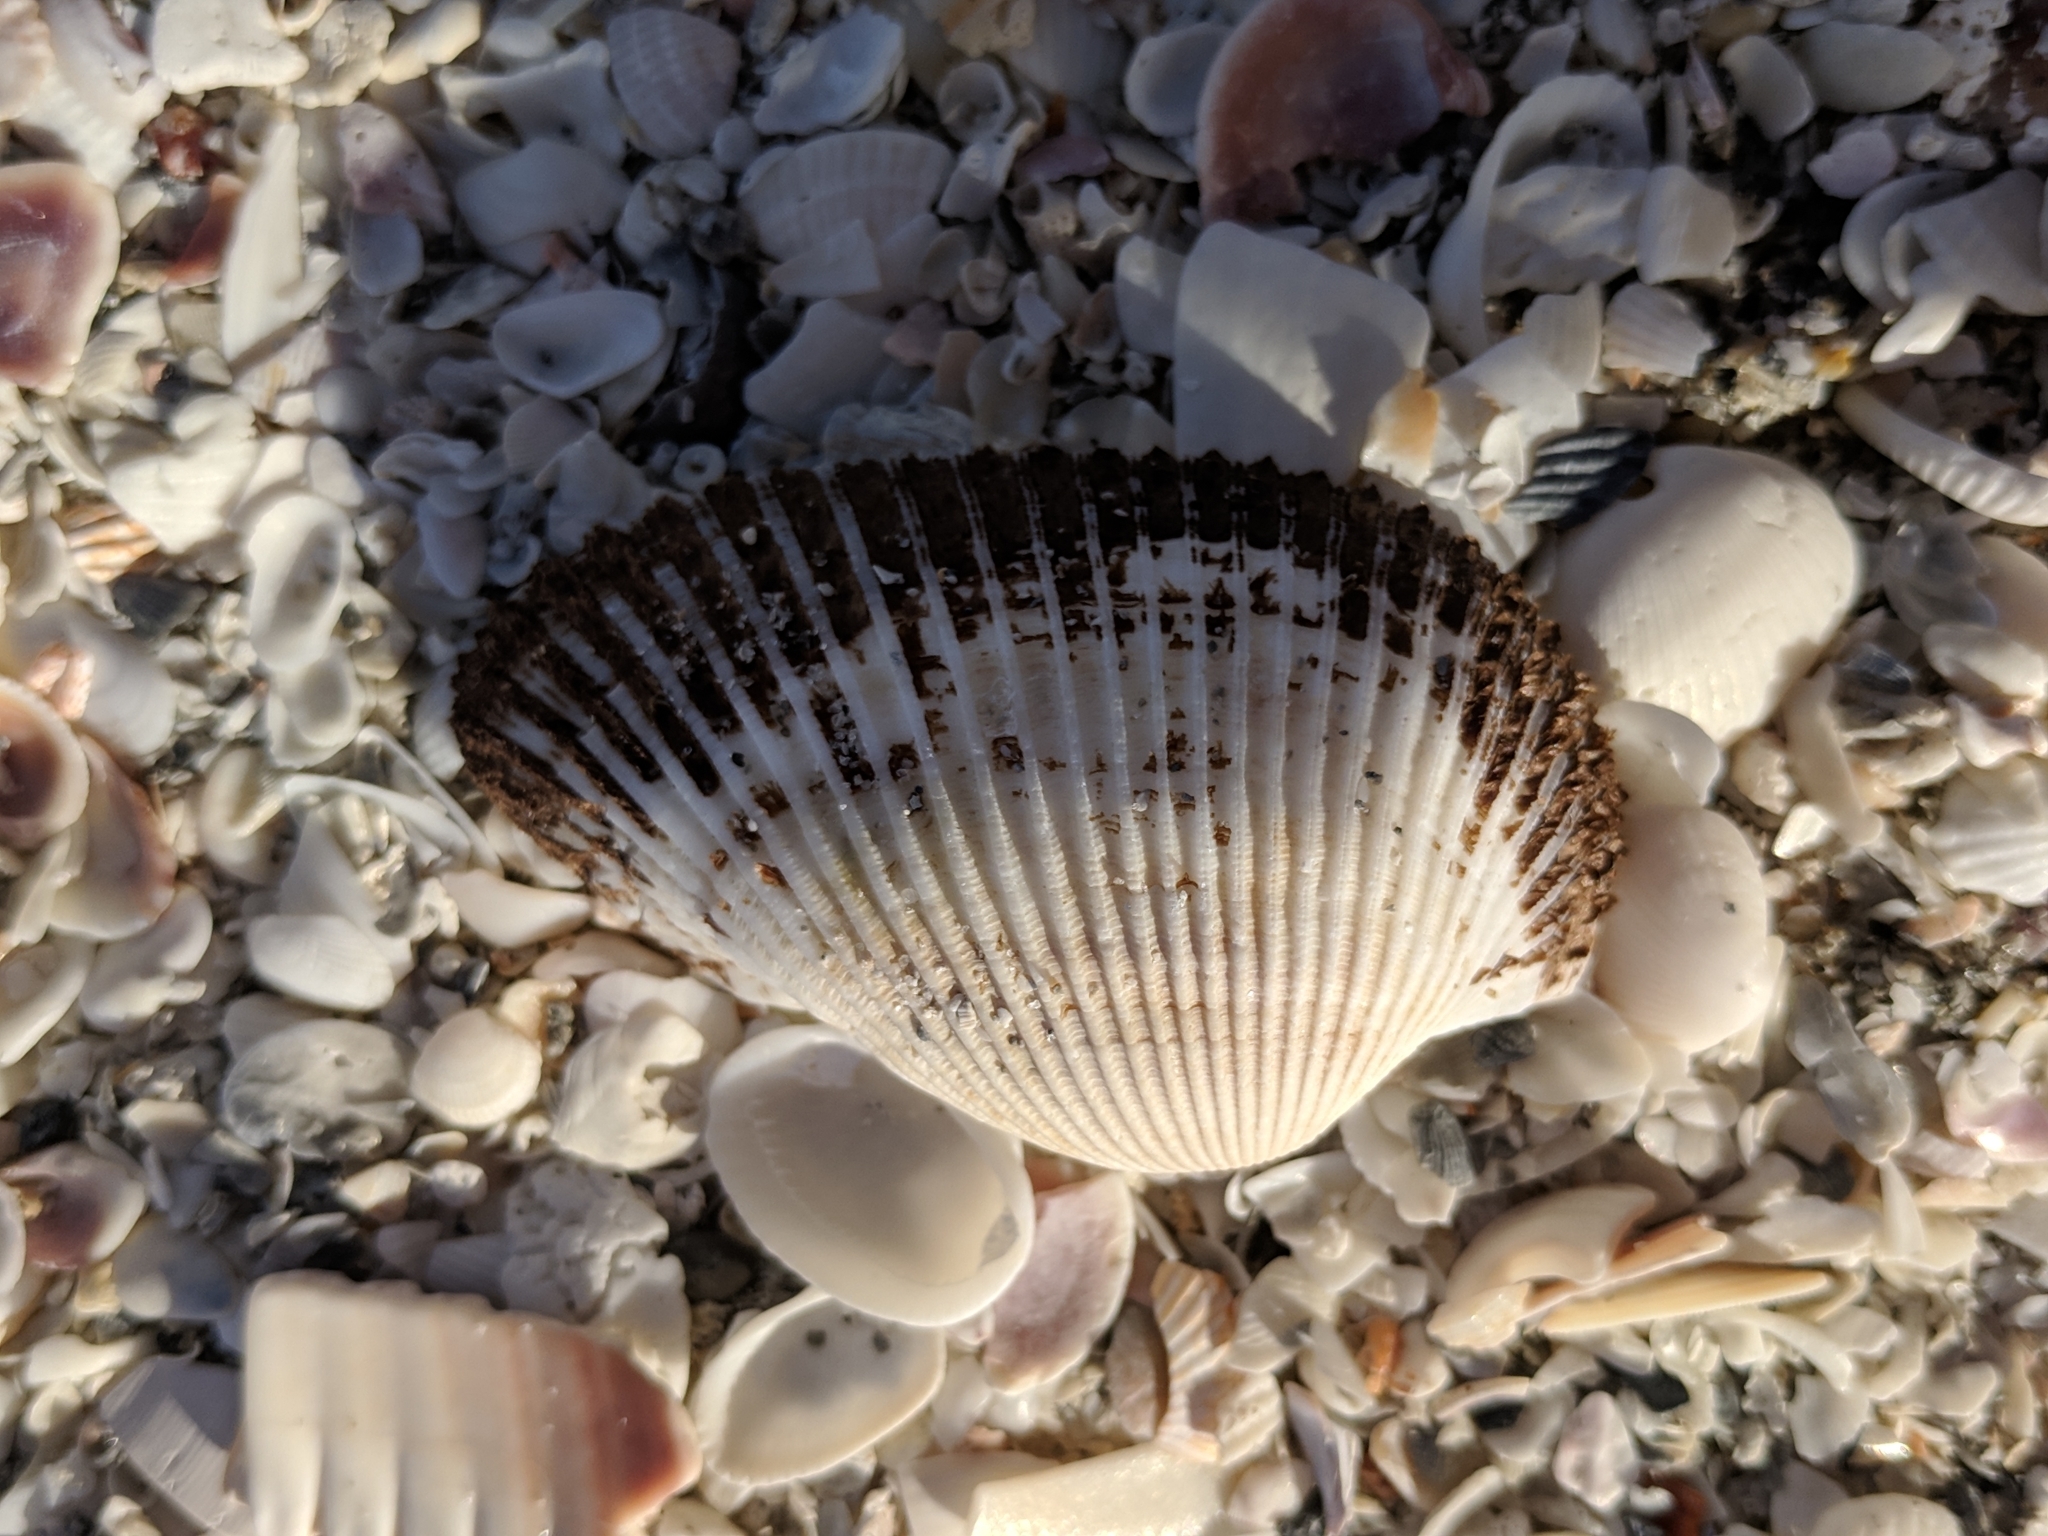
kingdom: Animalia
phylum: Mollusca
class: Bivalvia
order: Arcida
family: Arcidae
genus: Anadara
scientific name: Anadara secticostata
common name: Cut-ribbed ark
